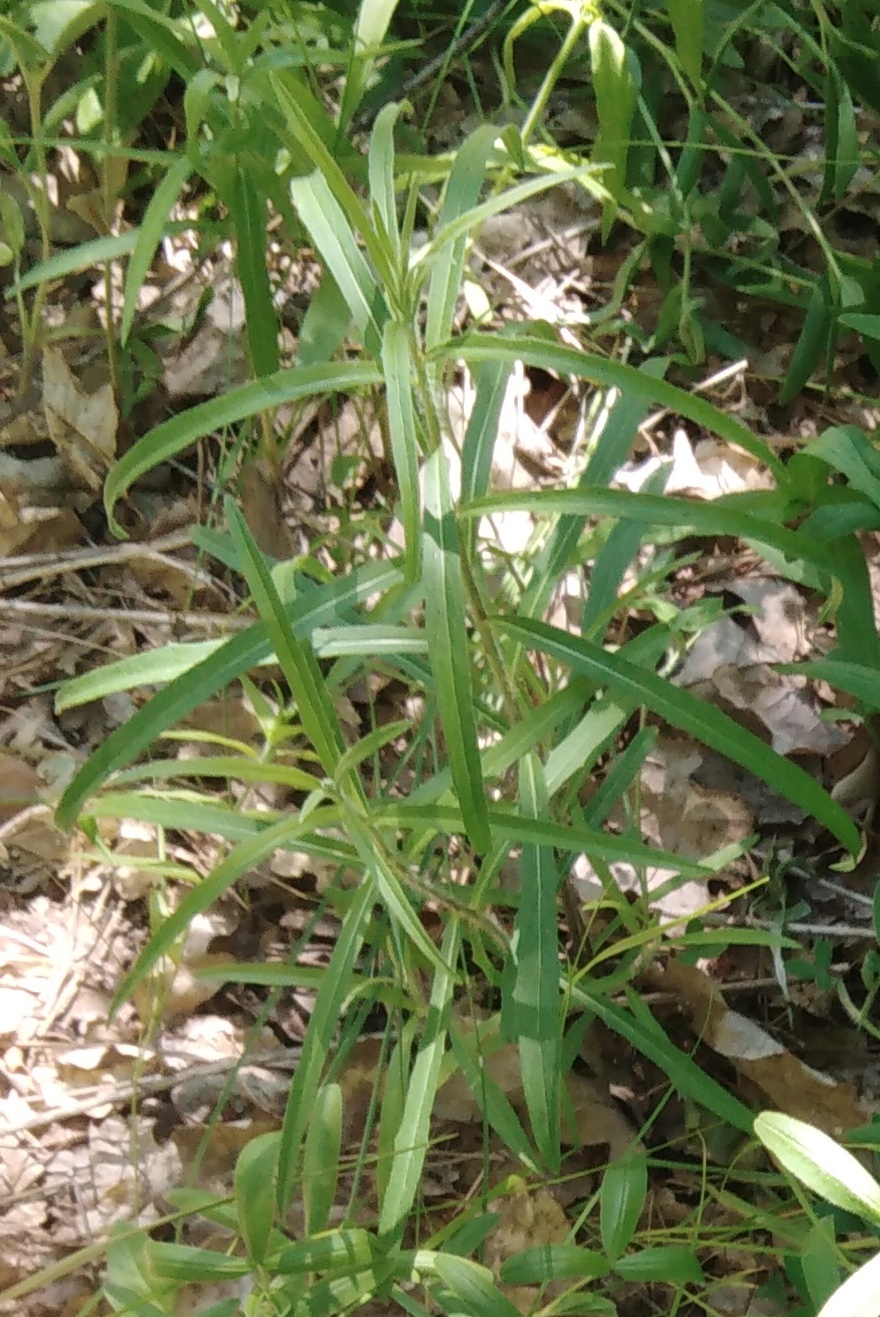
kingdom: Plantae
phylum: Tracheophyta
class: Magnoliopsida
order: Asterales
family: Asteraceae
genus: Hieracium
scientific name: Hieracium umbellatum
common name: Northern hawkweed
